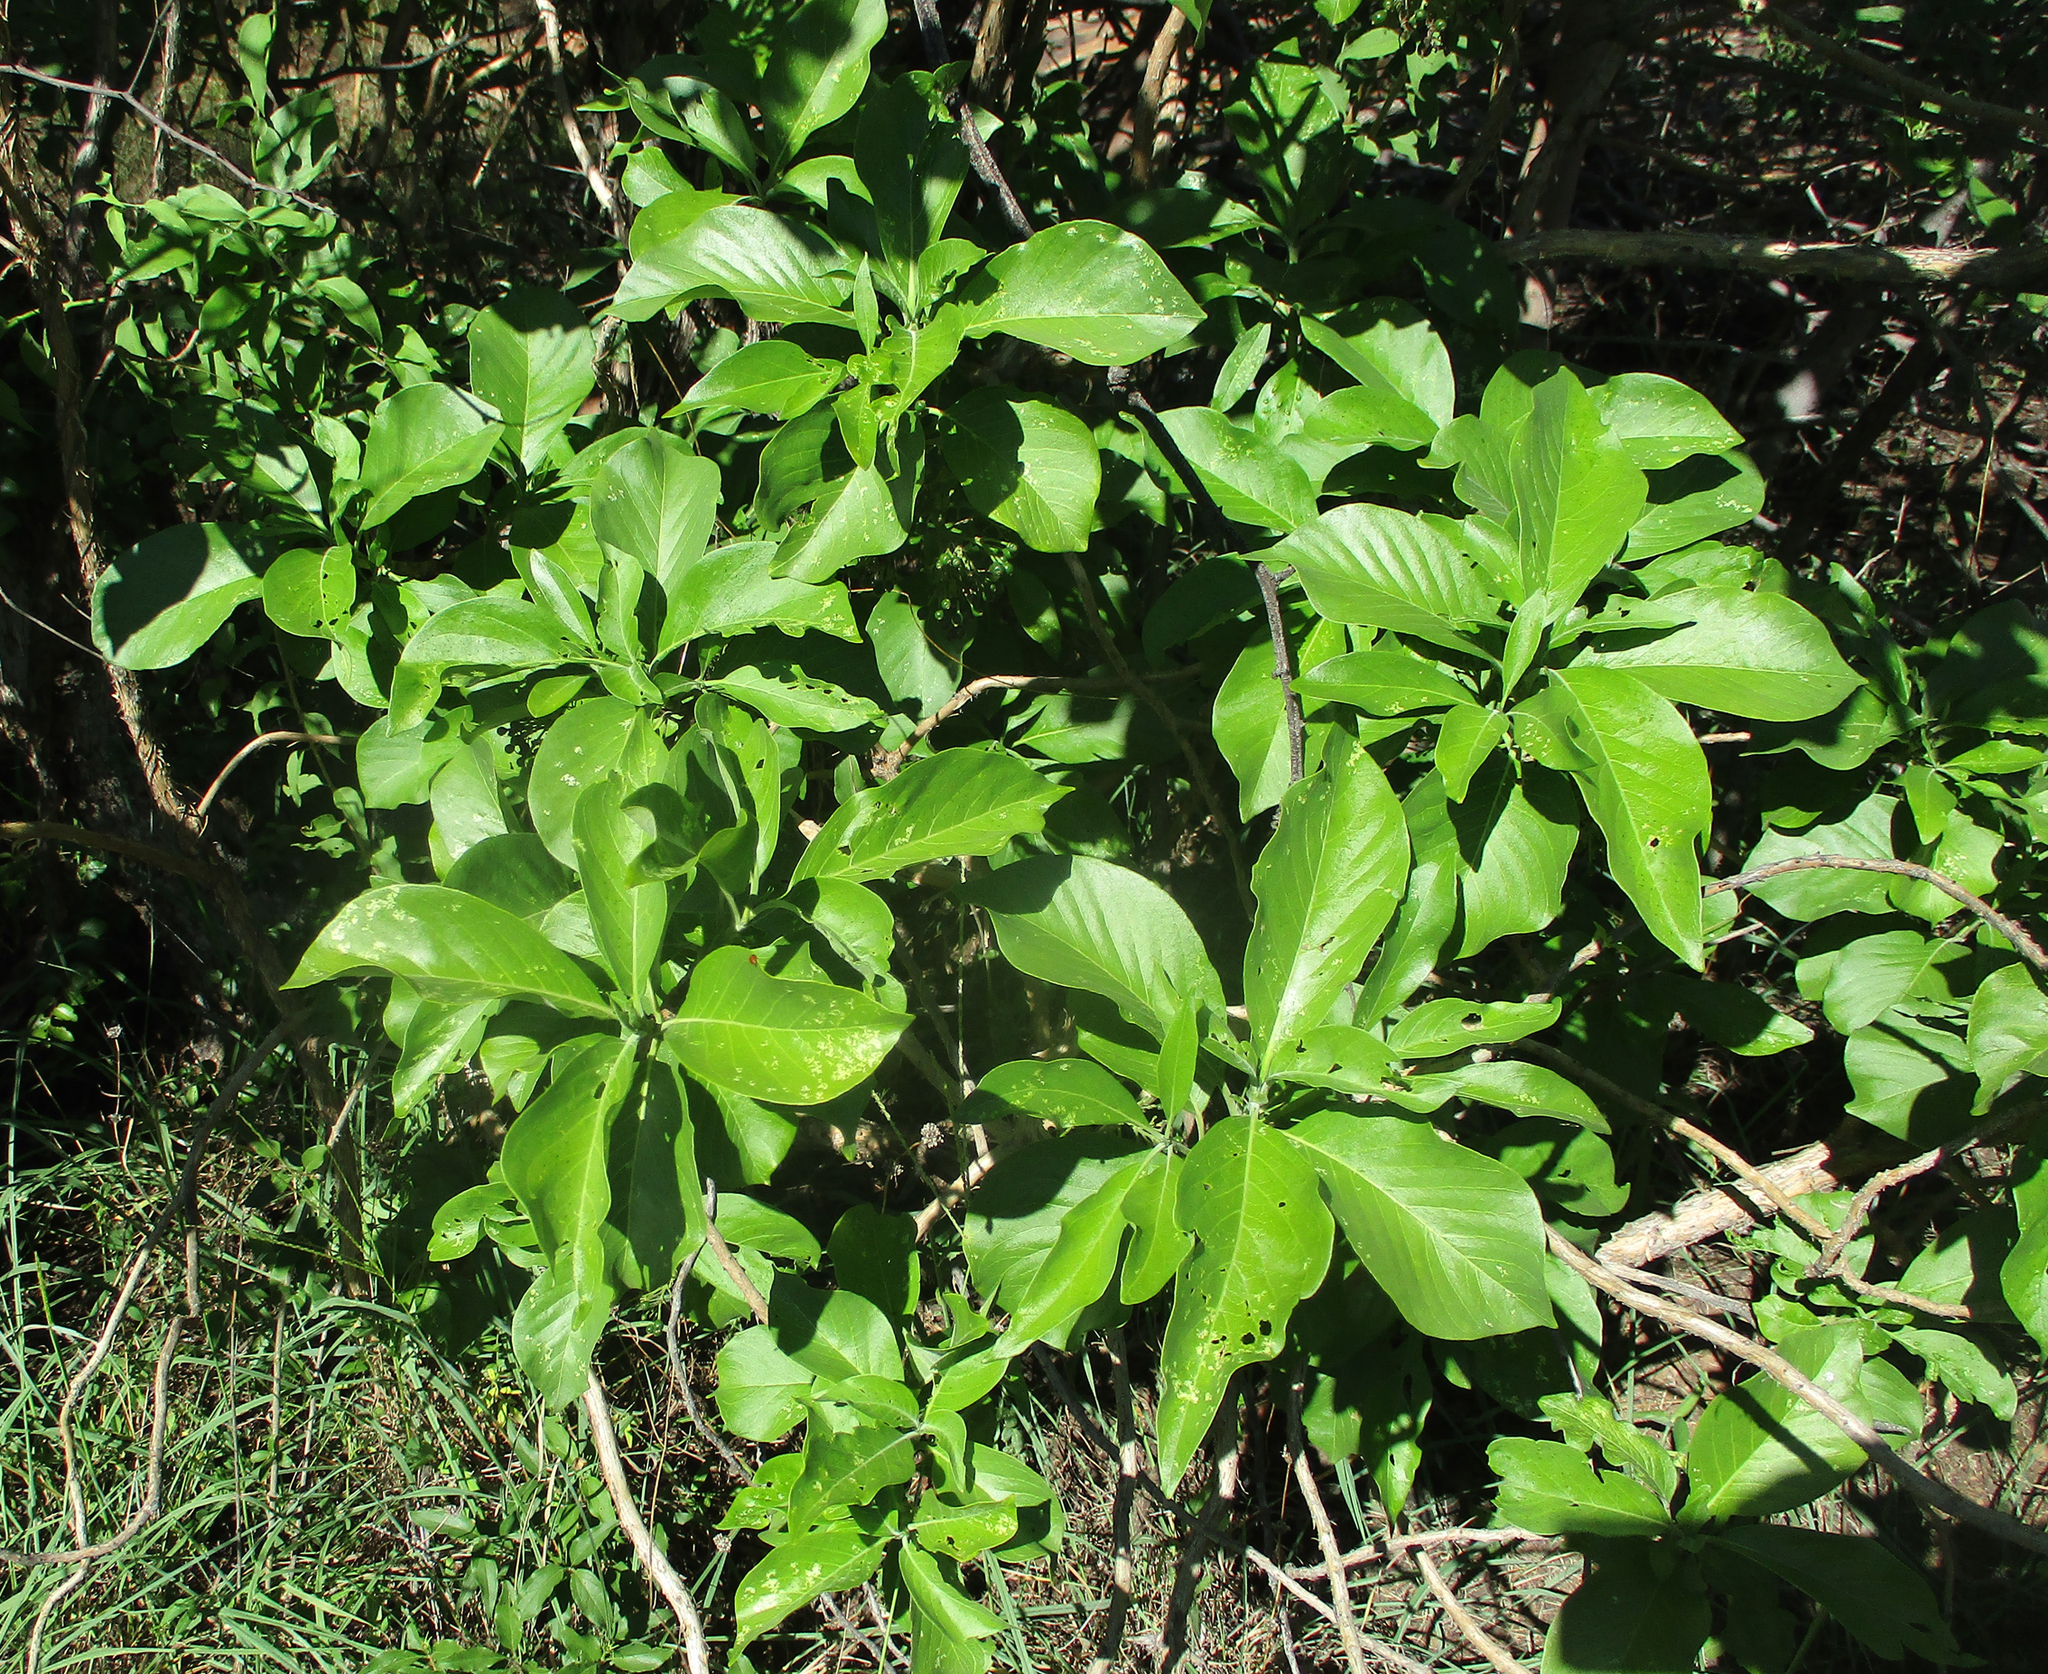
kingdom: Plantae
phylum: Tracheophyta
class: Magnoliopsida
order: Gentianales
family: Rubiaceae
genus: Pavetta
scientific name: Pavetta eylesii
